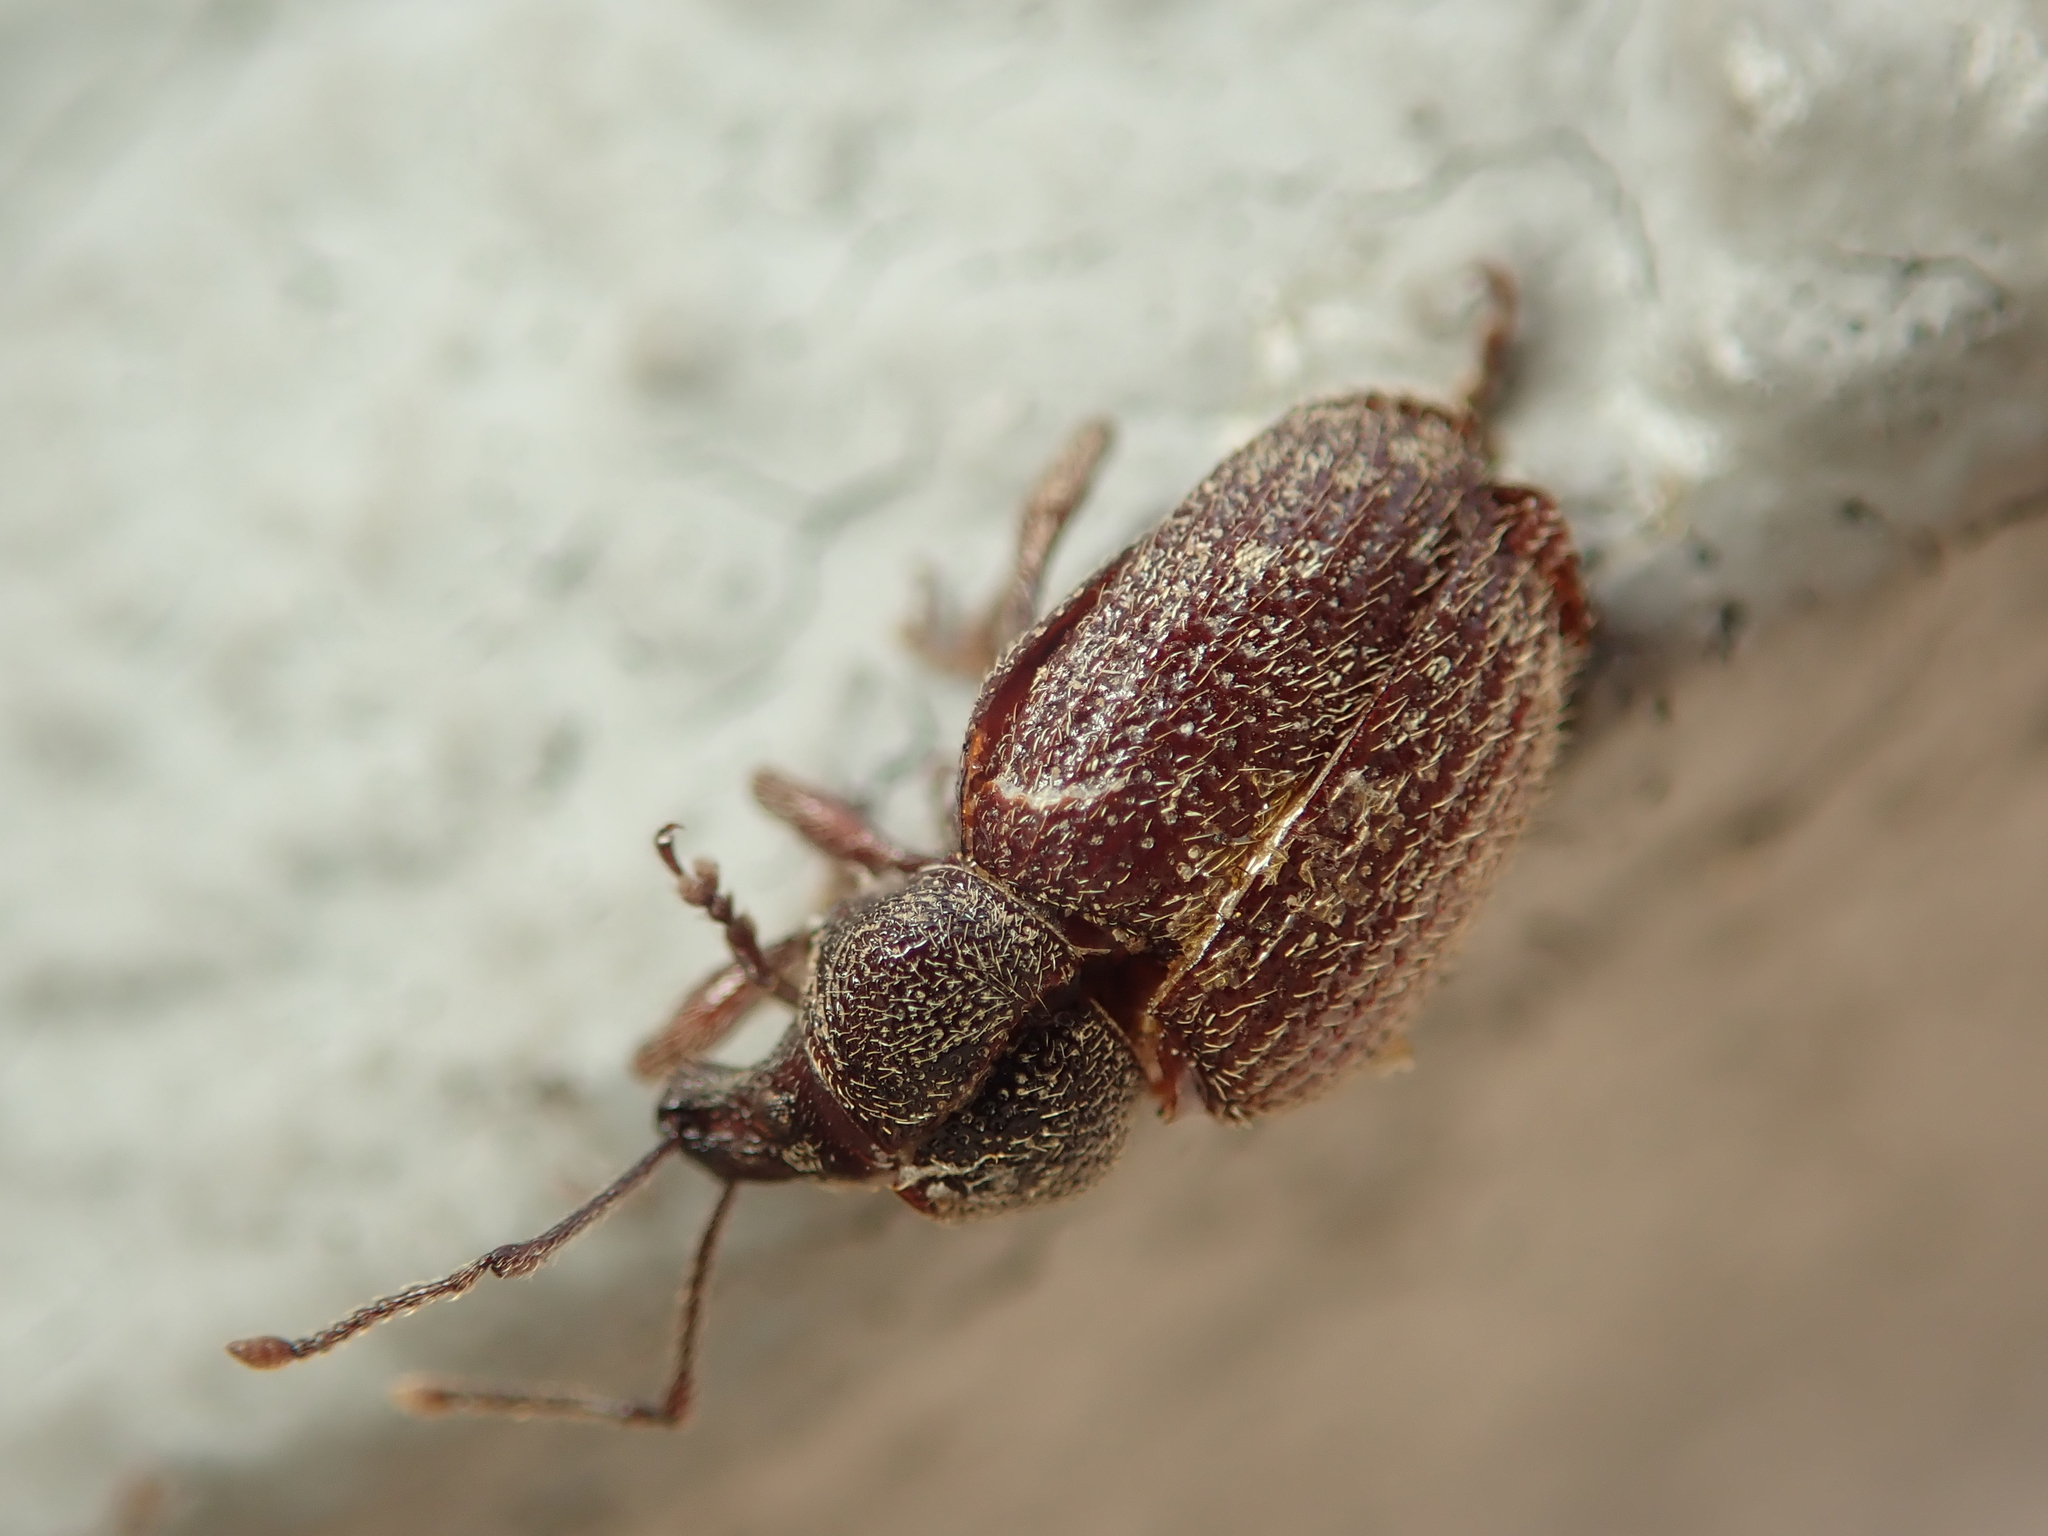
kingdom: Animalia
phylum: Arthropoda
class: Insecta
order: Coleoptera
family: Curculionidae
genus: Otiorhynchus
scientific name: Otiorhynchus indefinitus
